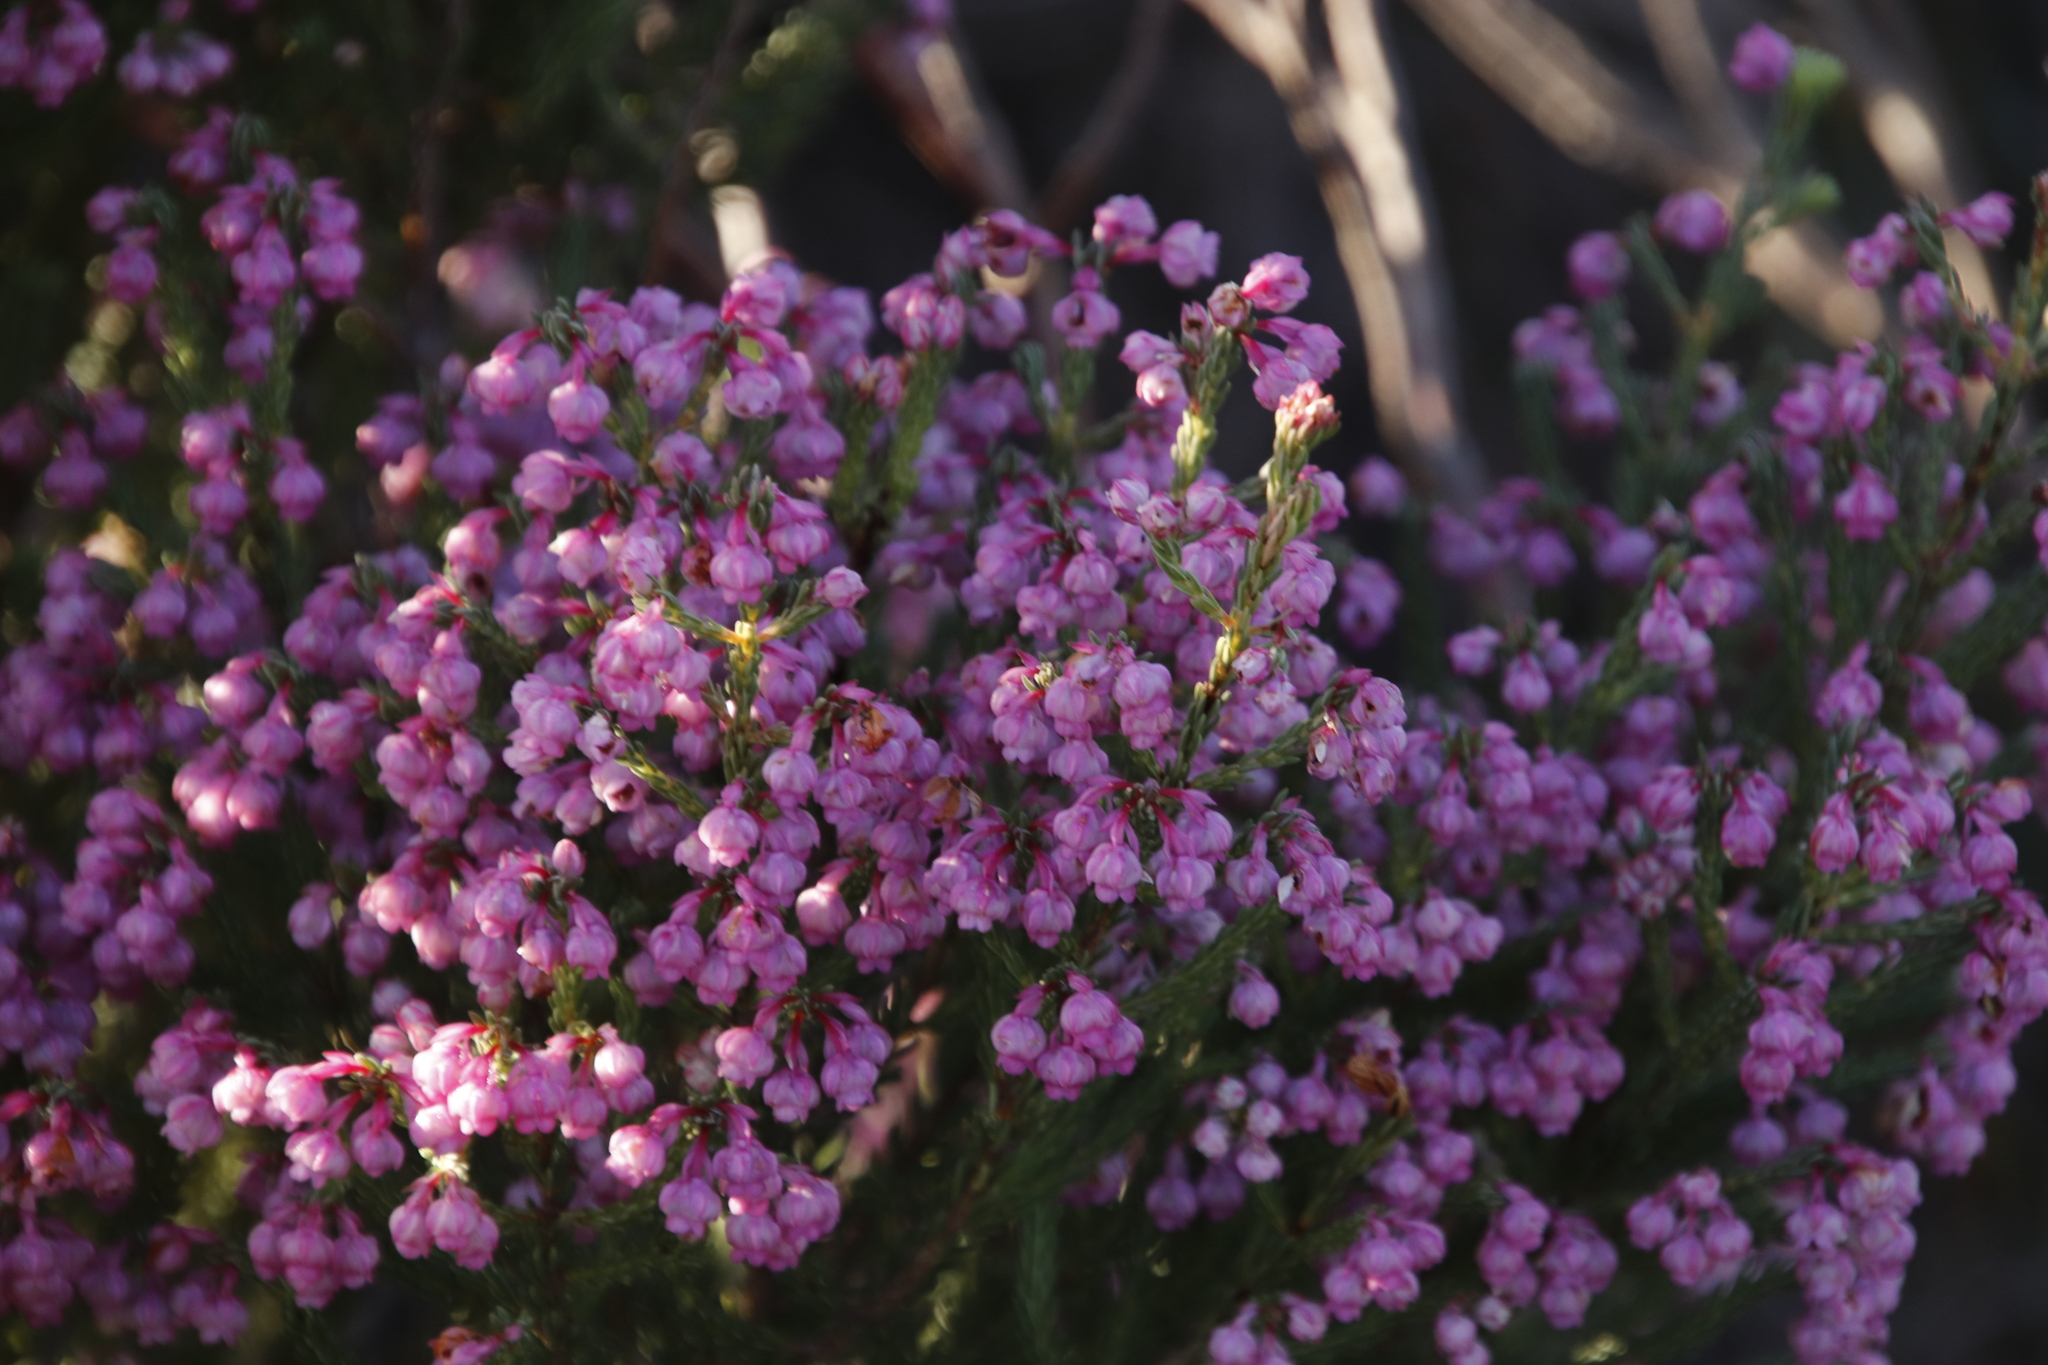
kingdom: Plantae
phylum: Tracheophyta
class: Magnoliopsida
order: Ericales
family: Ericaceae
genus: Erica
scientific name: Erica baccans
